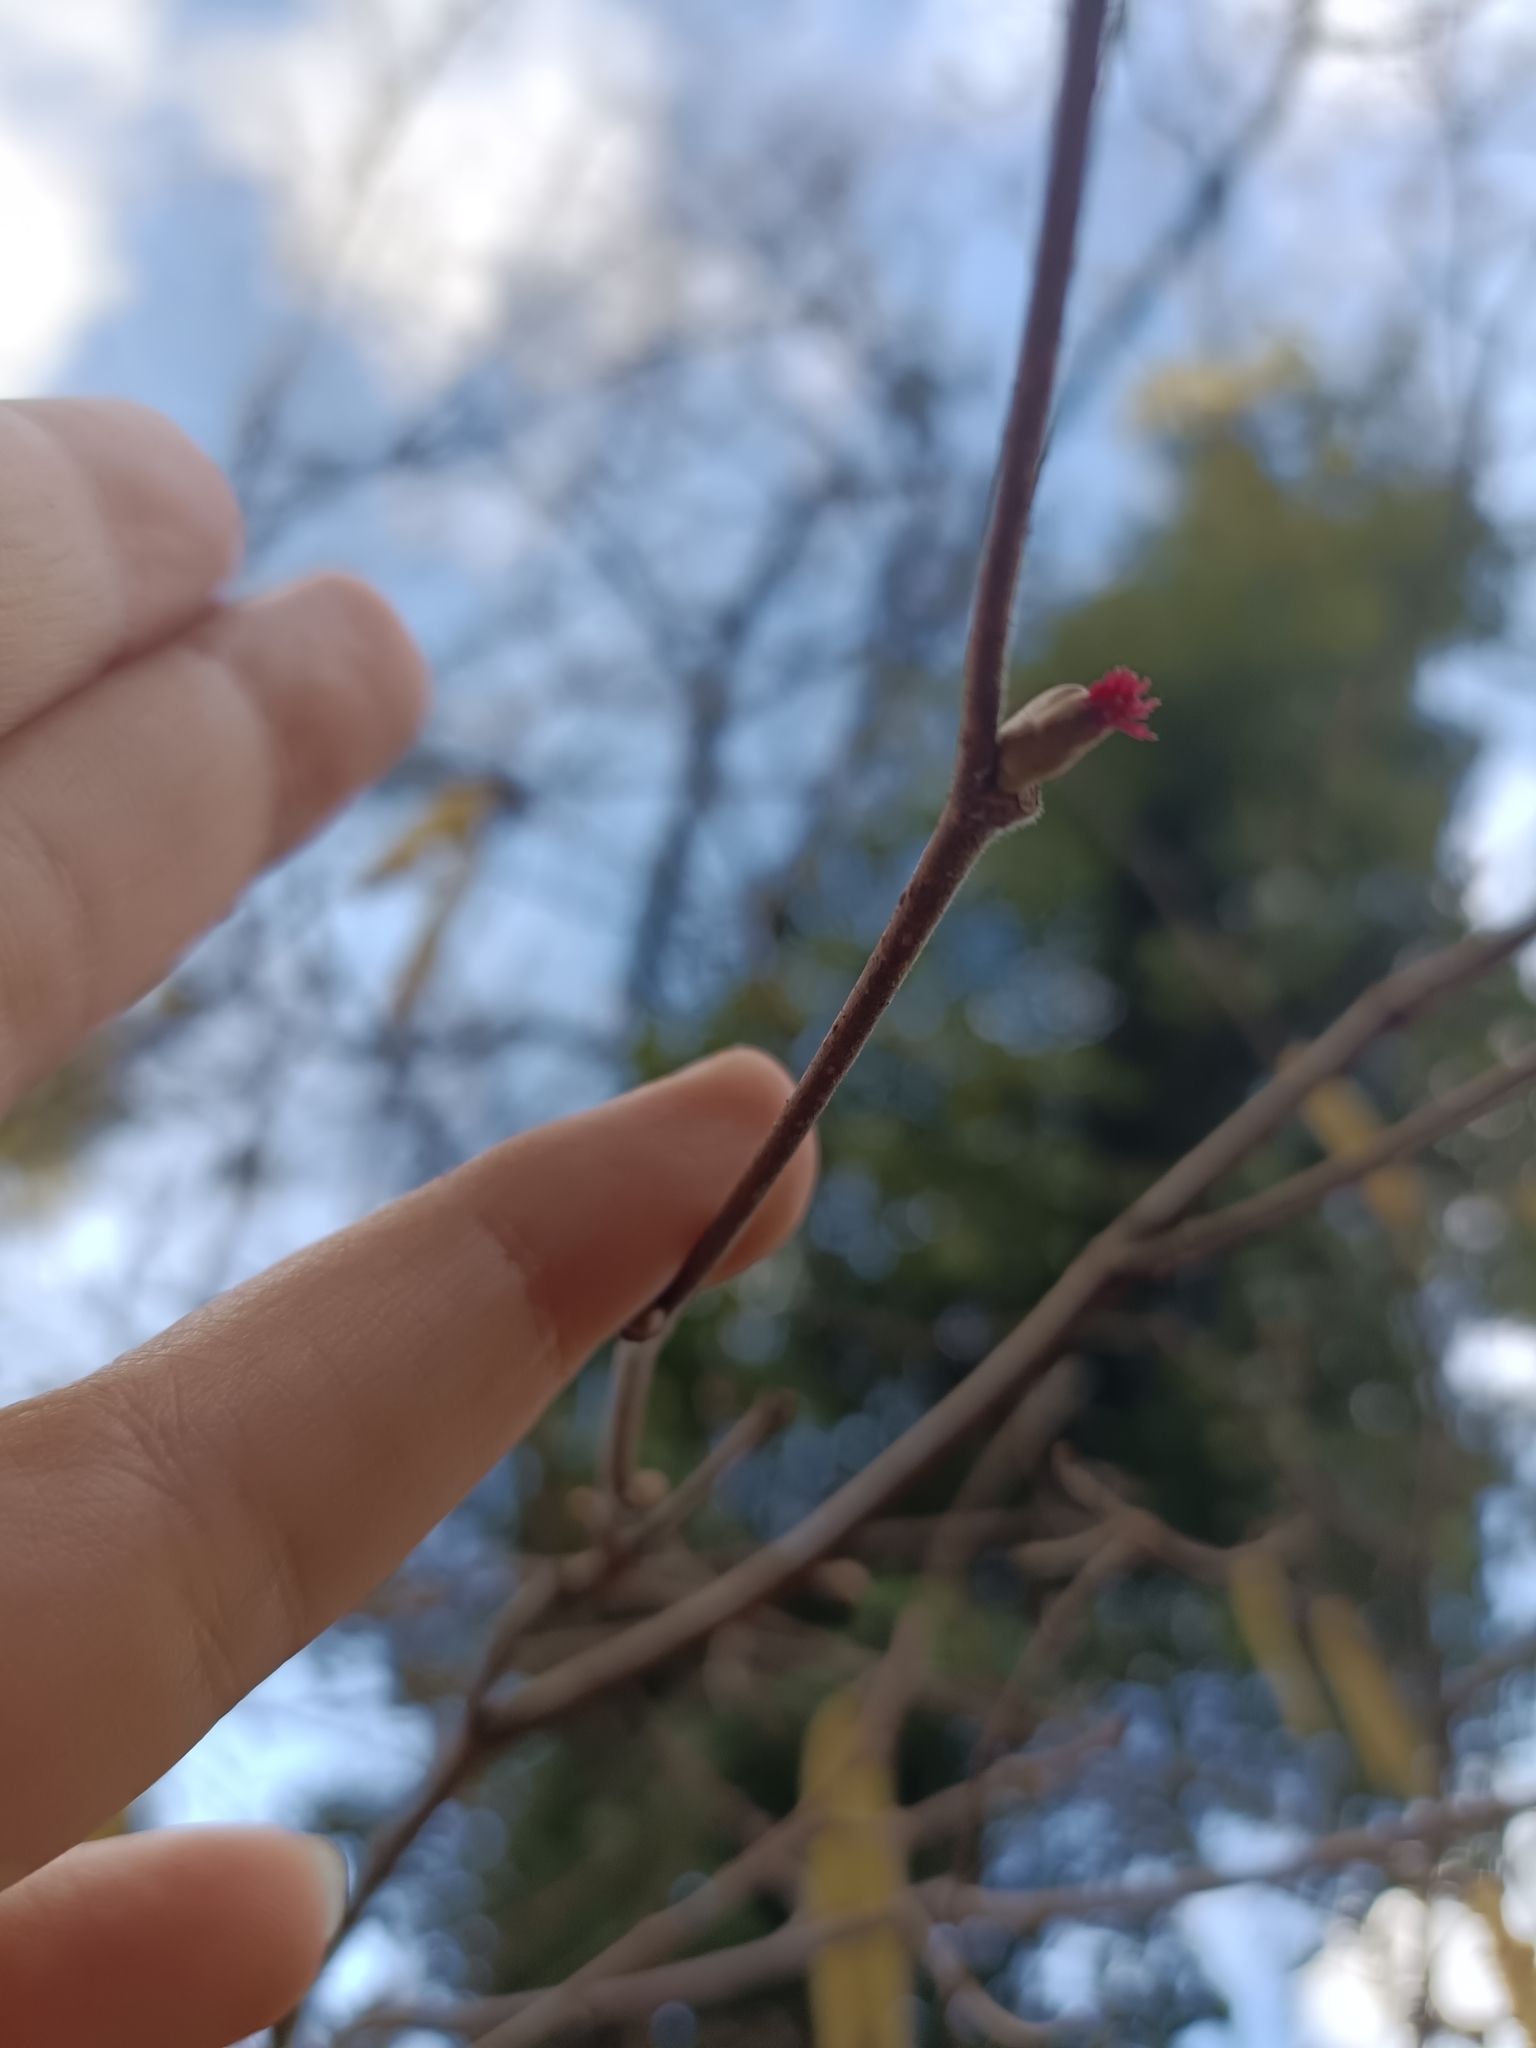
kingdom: Plantae
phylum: Tracheophyta
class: Magnoliopsida
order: Fagales
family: Betulaceae
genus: Corylus
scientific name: Corylus avellana
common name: European hazel
